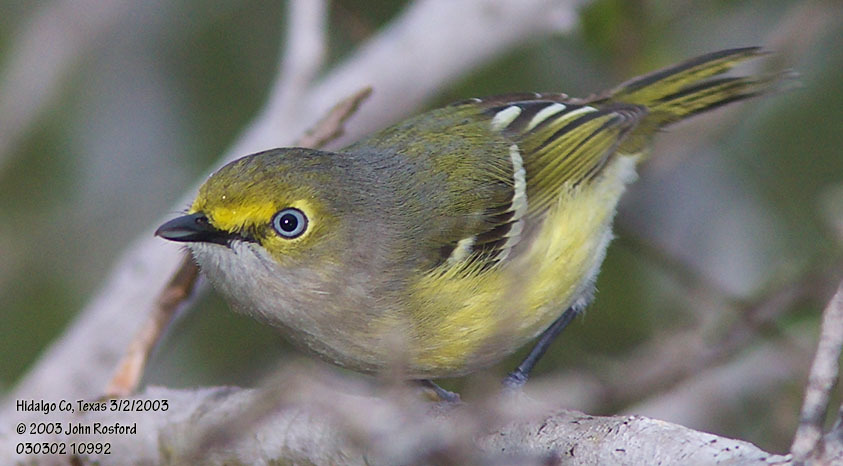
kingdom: Animalia
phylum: Chordata
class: Aves
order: Passeriformes
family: Vireonidae
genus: Vireo
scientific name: Vireo griseus
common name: White-eyed vireo
